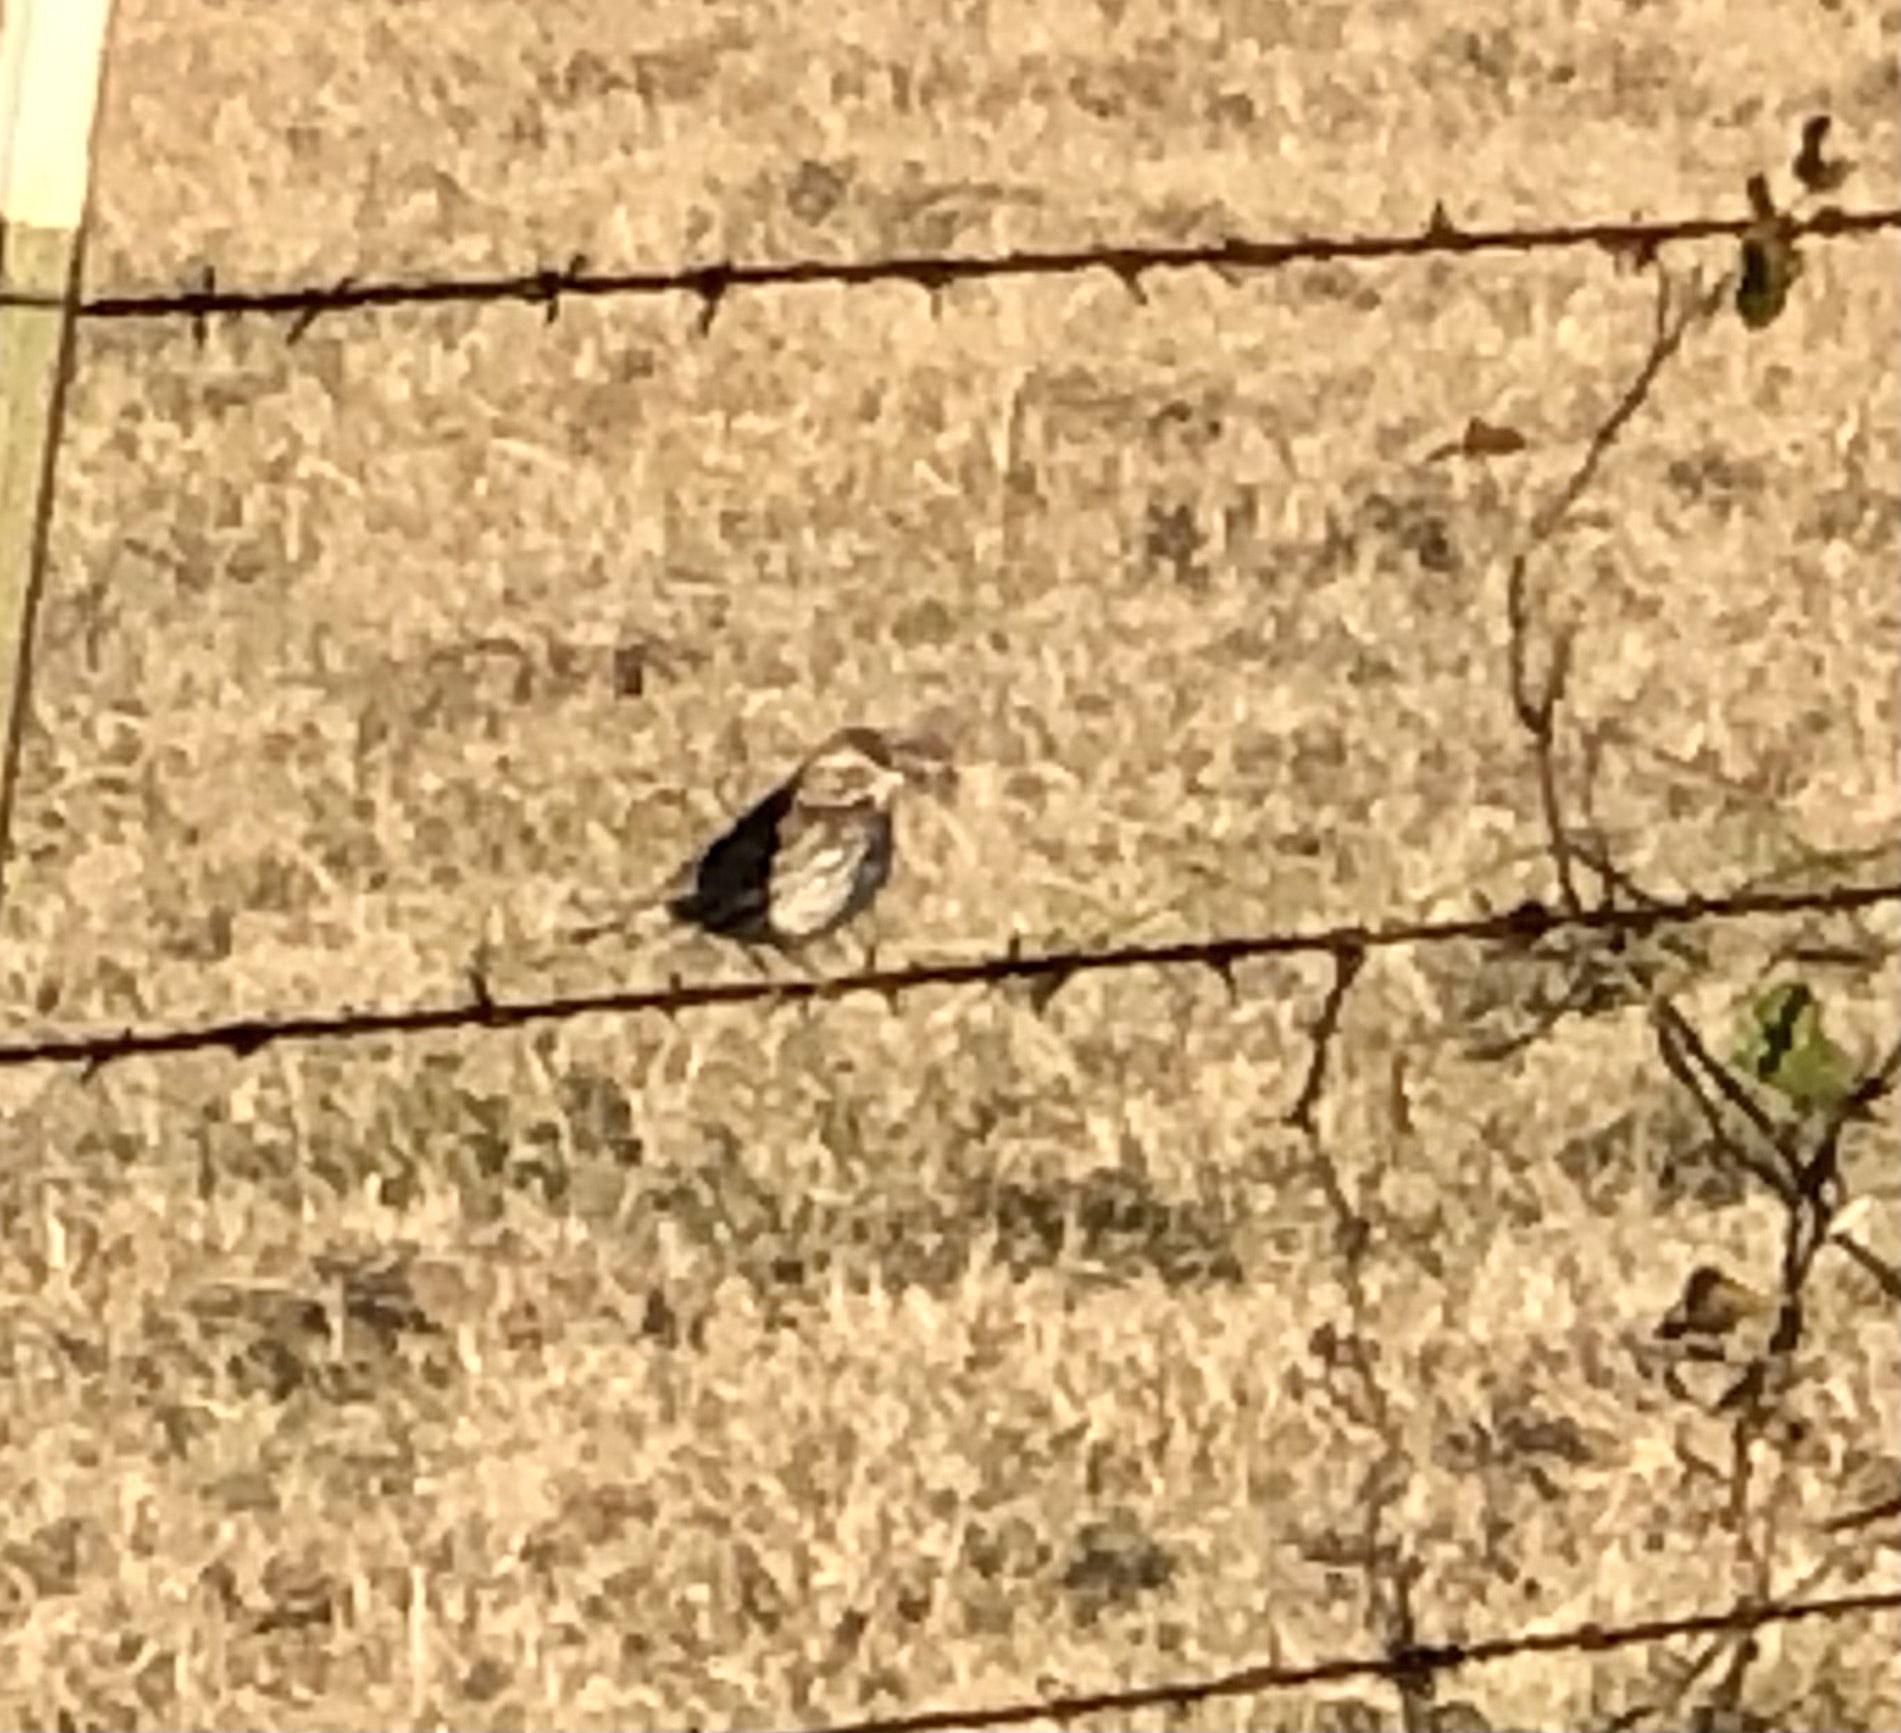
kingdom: Animalia
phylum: Chordata
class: Aves
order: Passeriformes
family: Passerellidae
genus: Passerculus
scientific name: Passerculus sandwichensis
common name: Savannah sparrow
